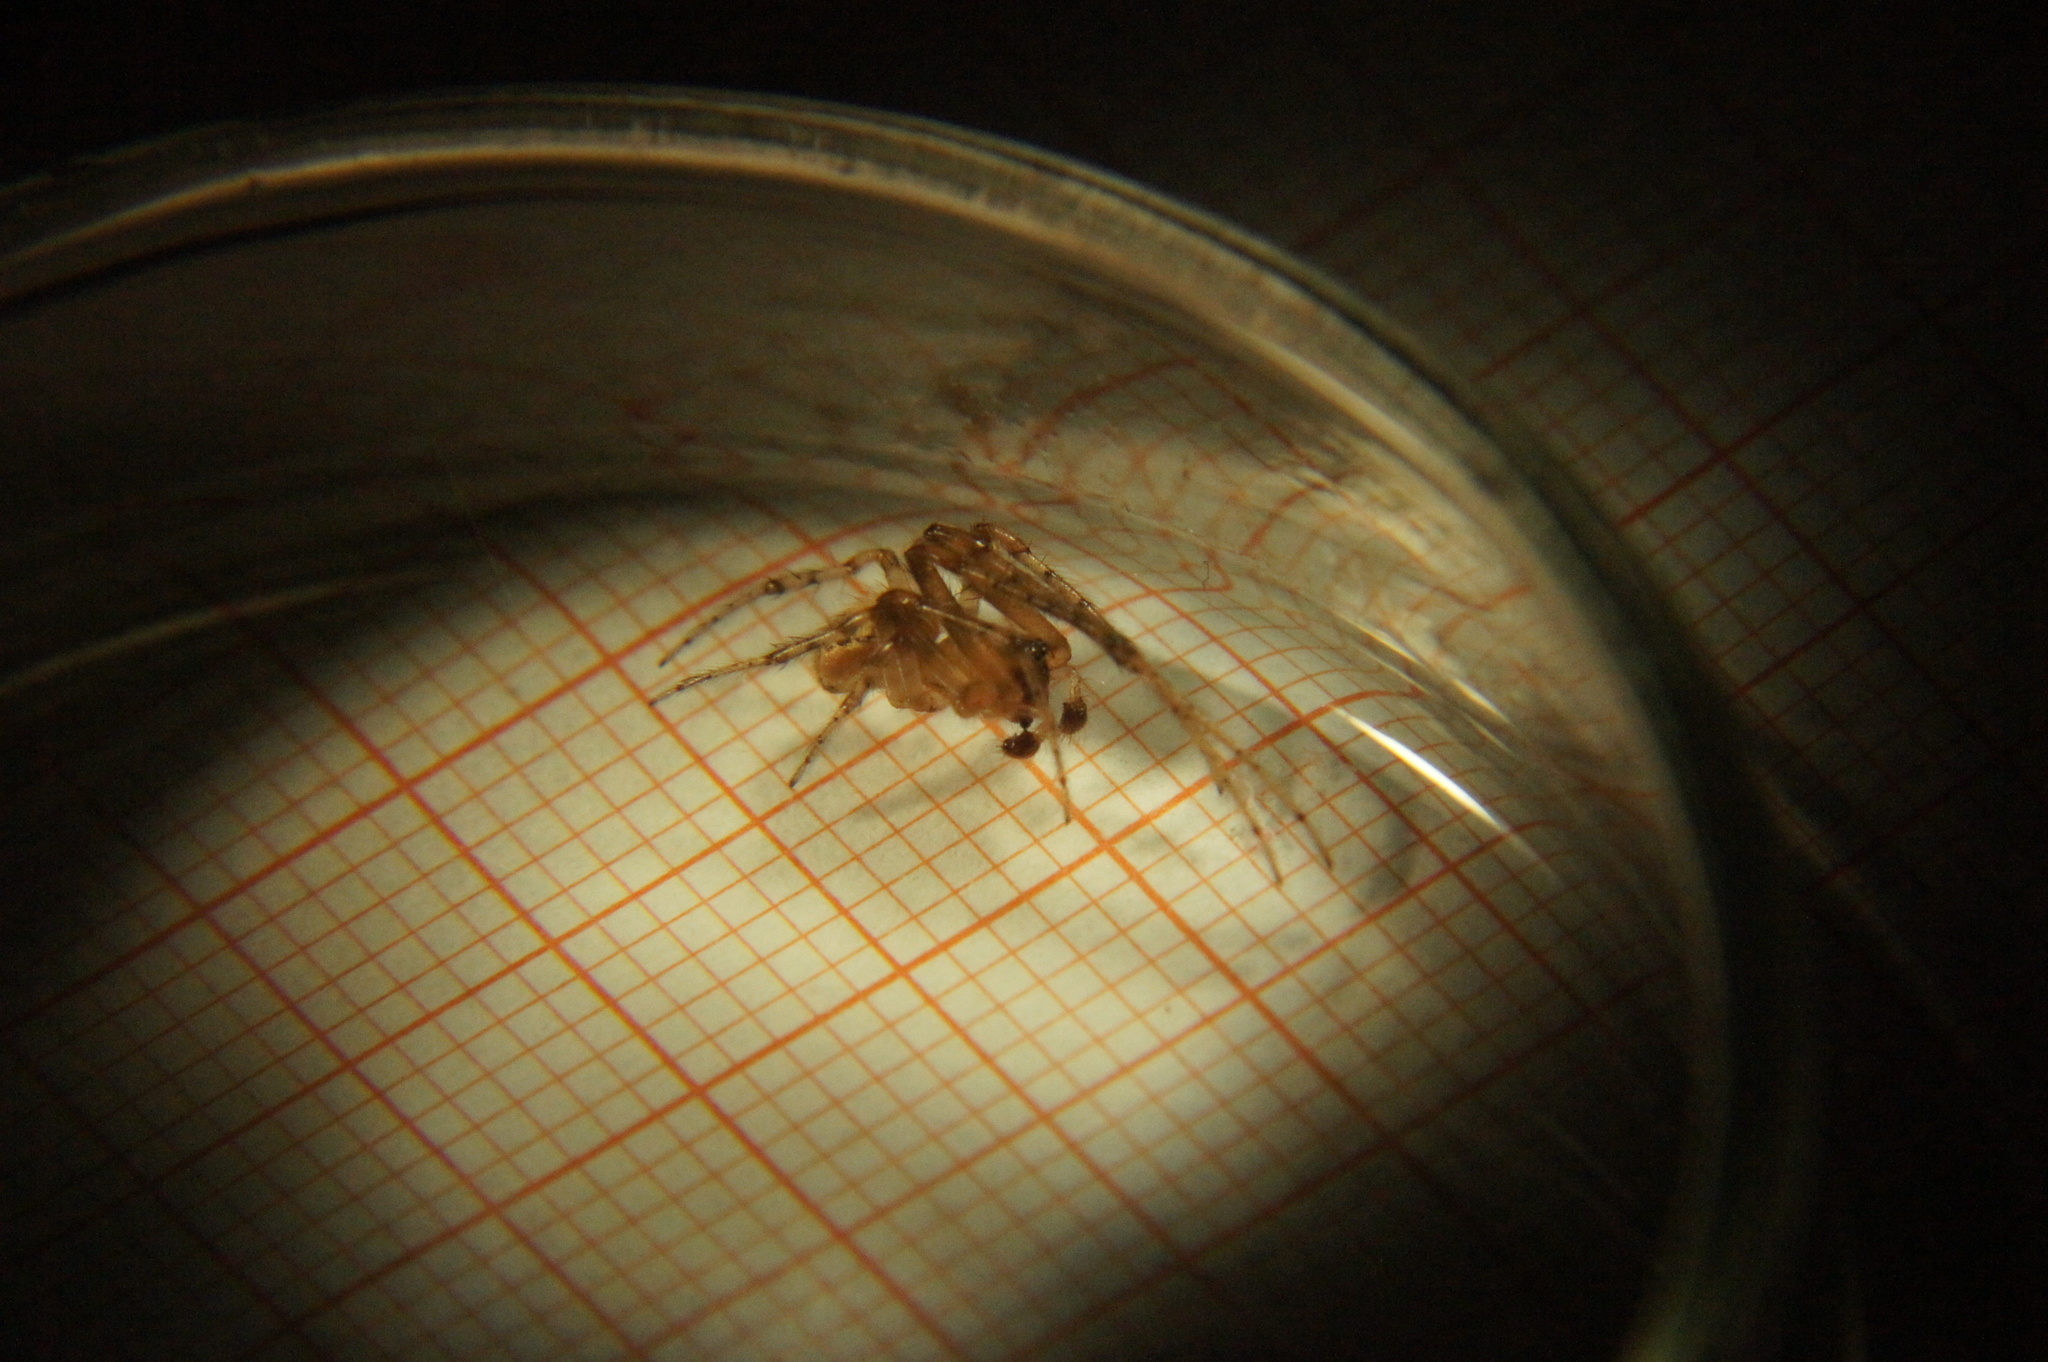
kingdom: Animalia
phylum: Arthropoda
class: Arachnida
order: Araneae
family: Araneidae
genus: Zygiella
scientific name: Zygiella x-notata
